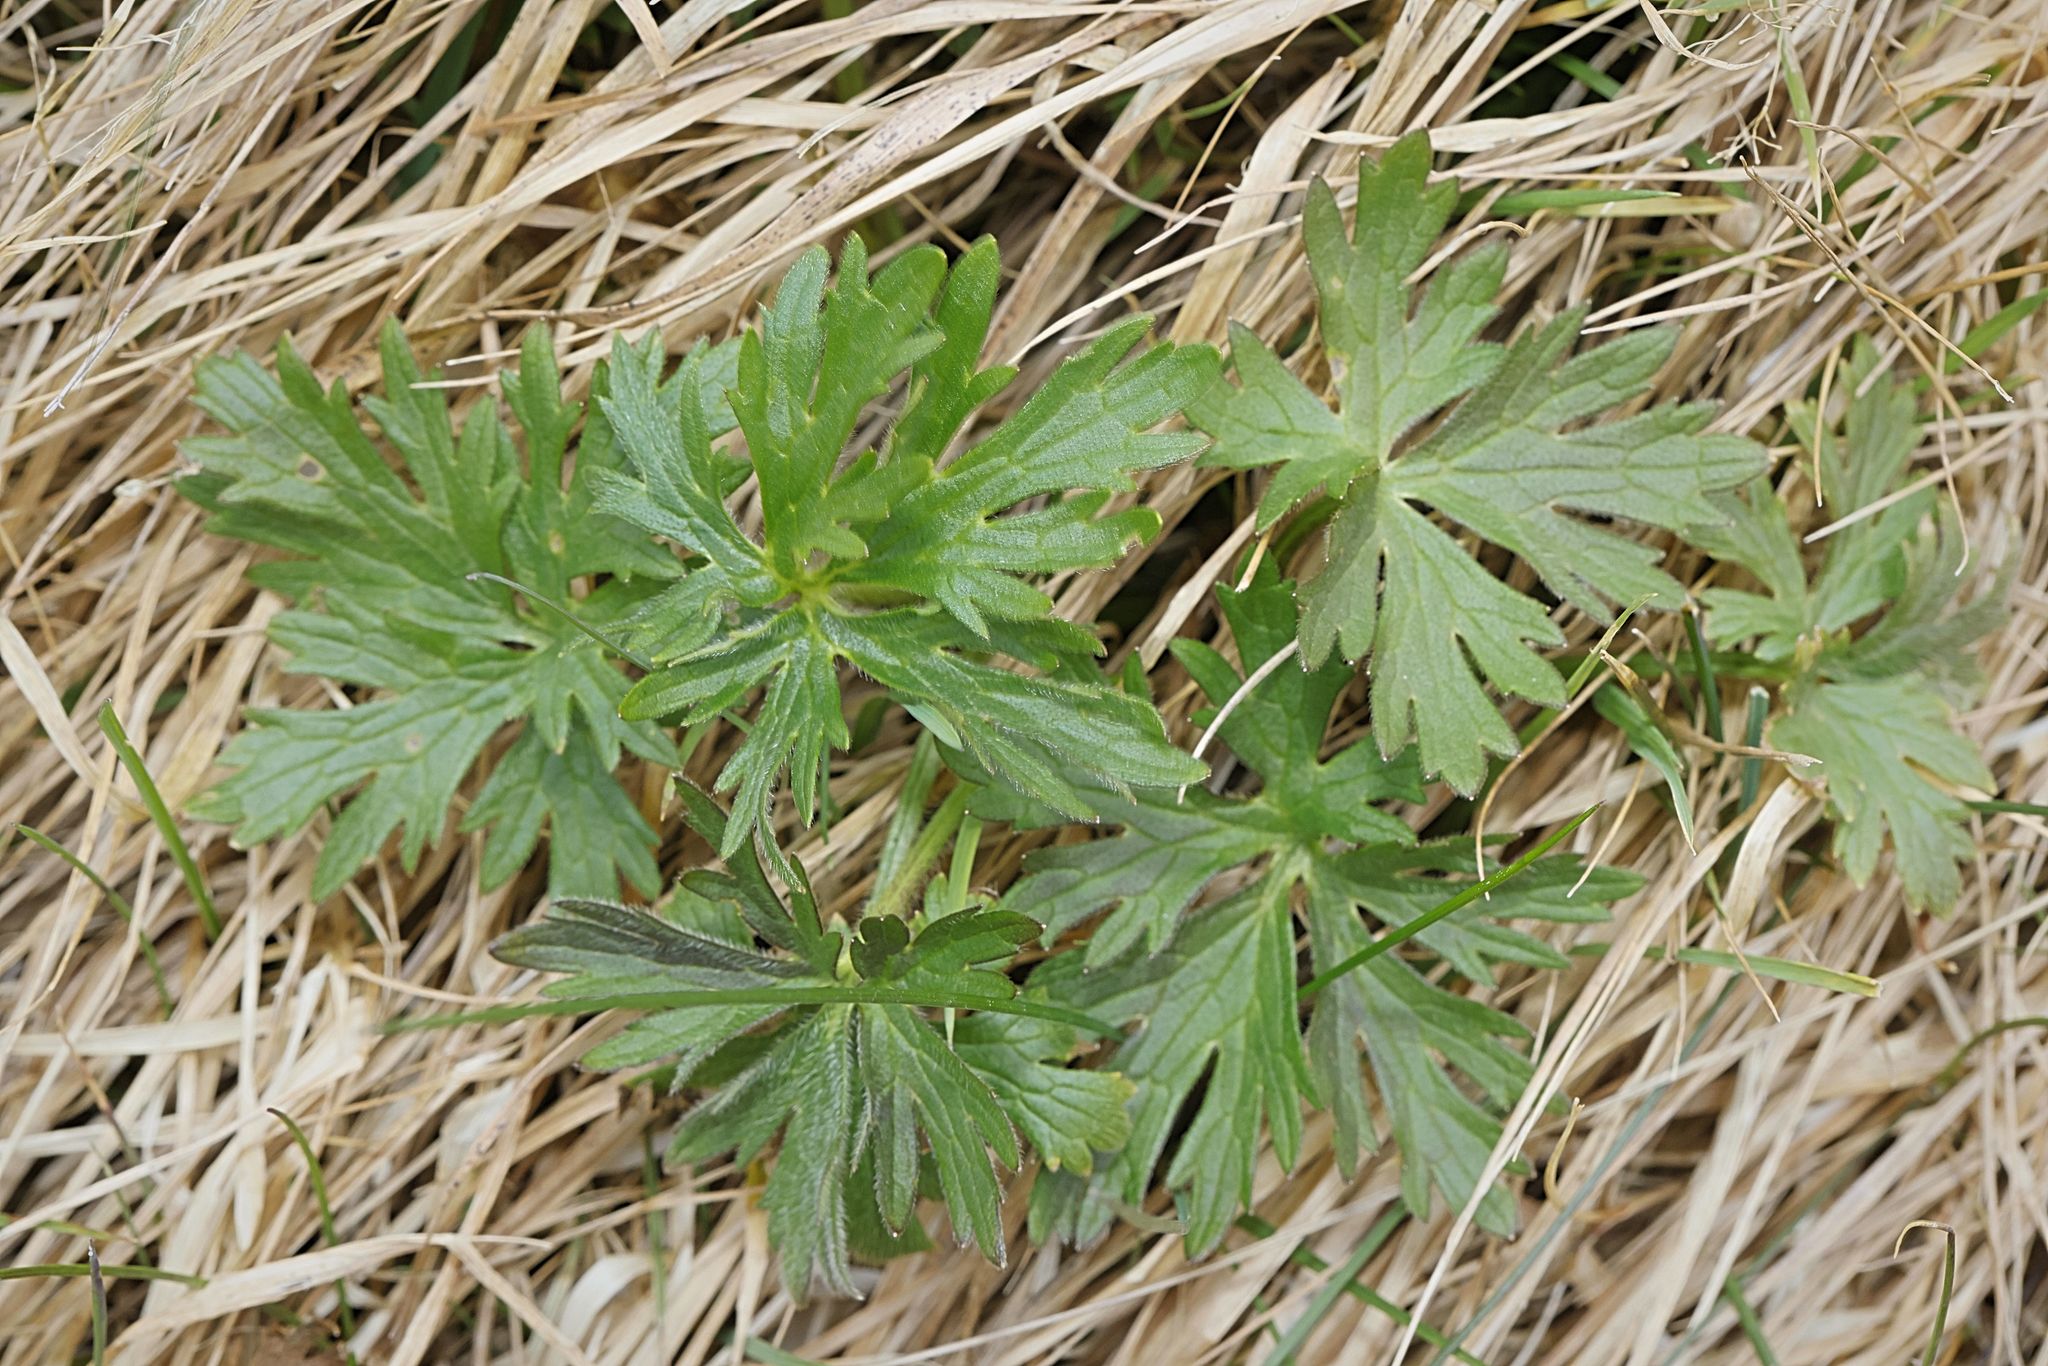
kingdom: Plantae
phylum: Tracheophyta
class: Magnoliopsida
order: Ranunculales
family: Ranunculaceae
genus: Ranunculus
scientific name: Ranunculus acris
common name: Meadow buttercup
